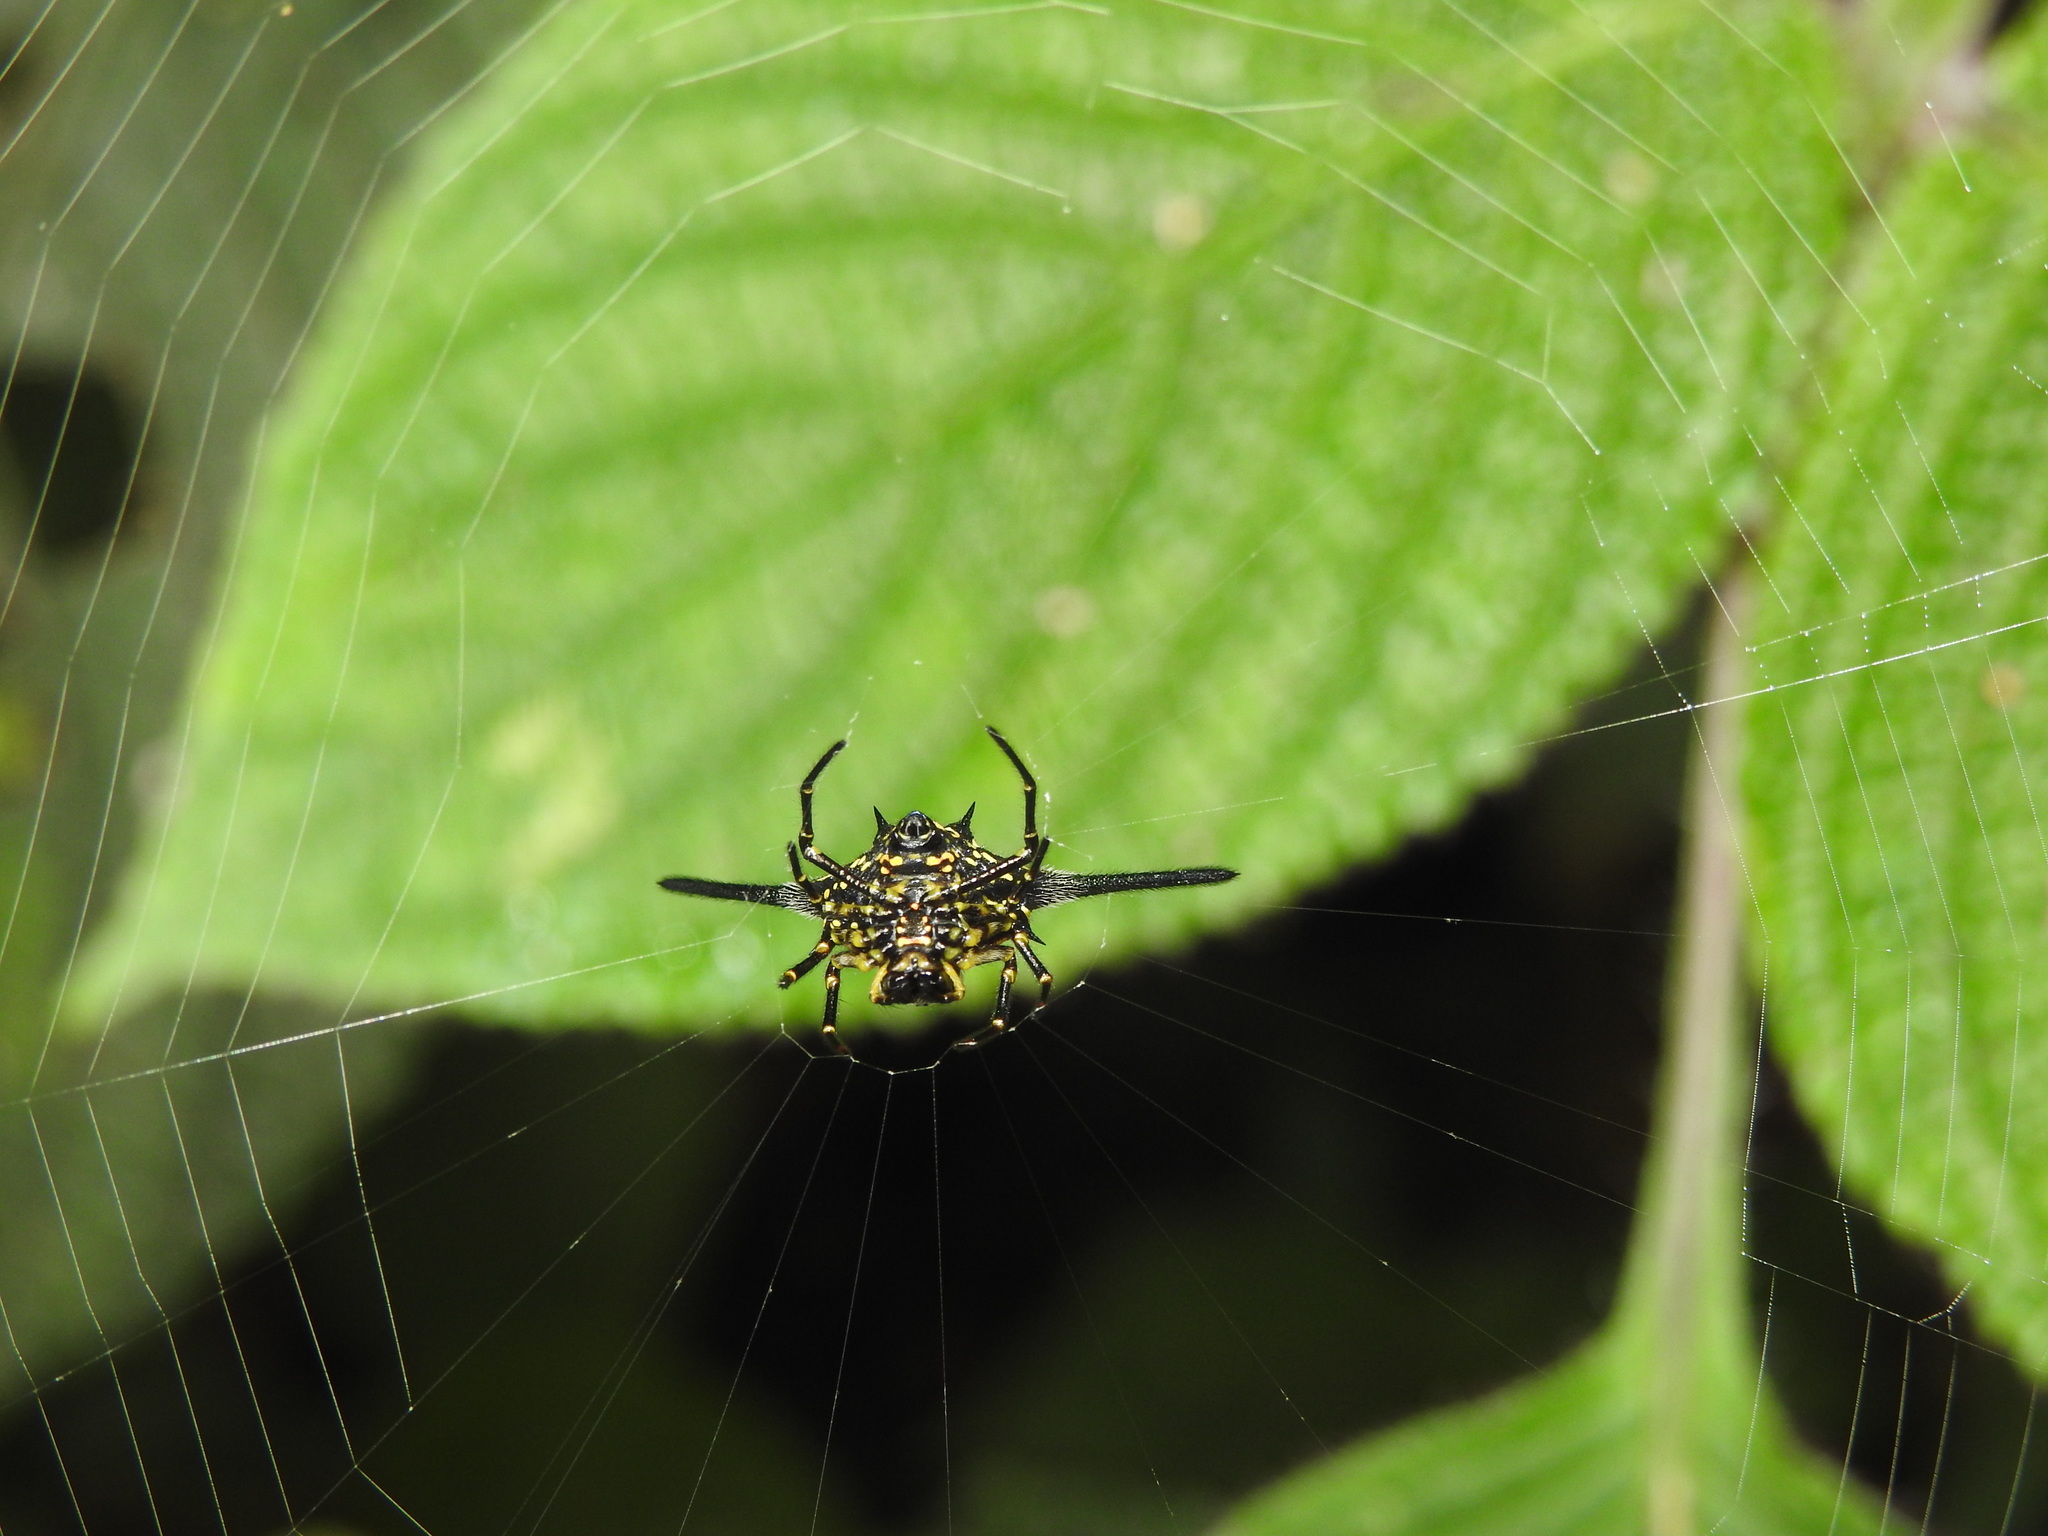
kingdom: Animalia
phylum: Arthropoda
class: Arachnida
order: Araneae
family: Araneidae
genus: Gasteracantha
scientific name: Gasteracantha dalyi
